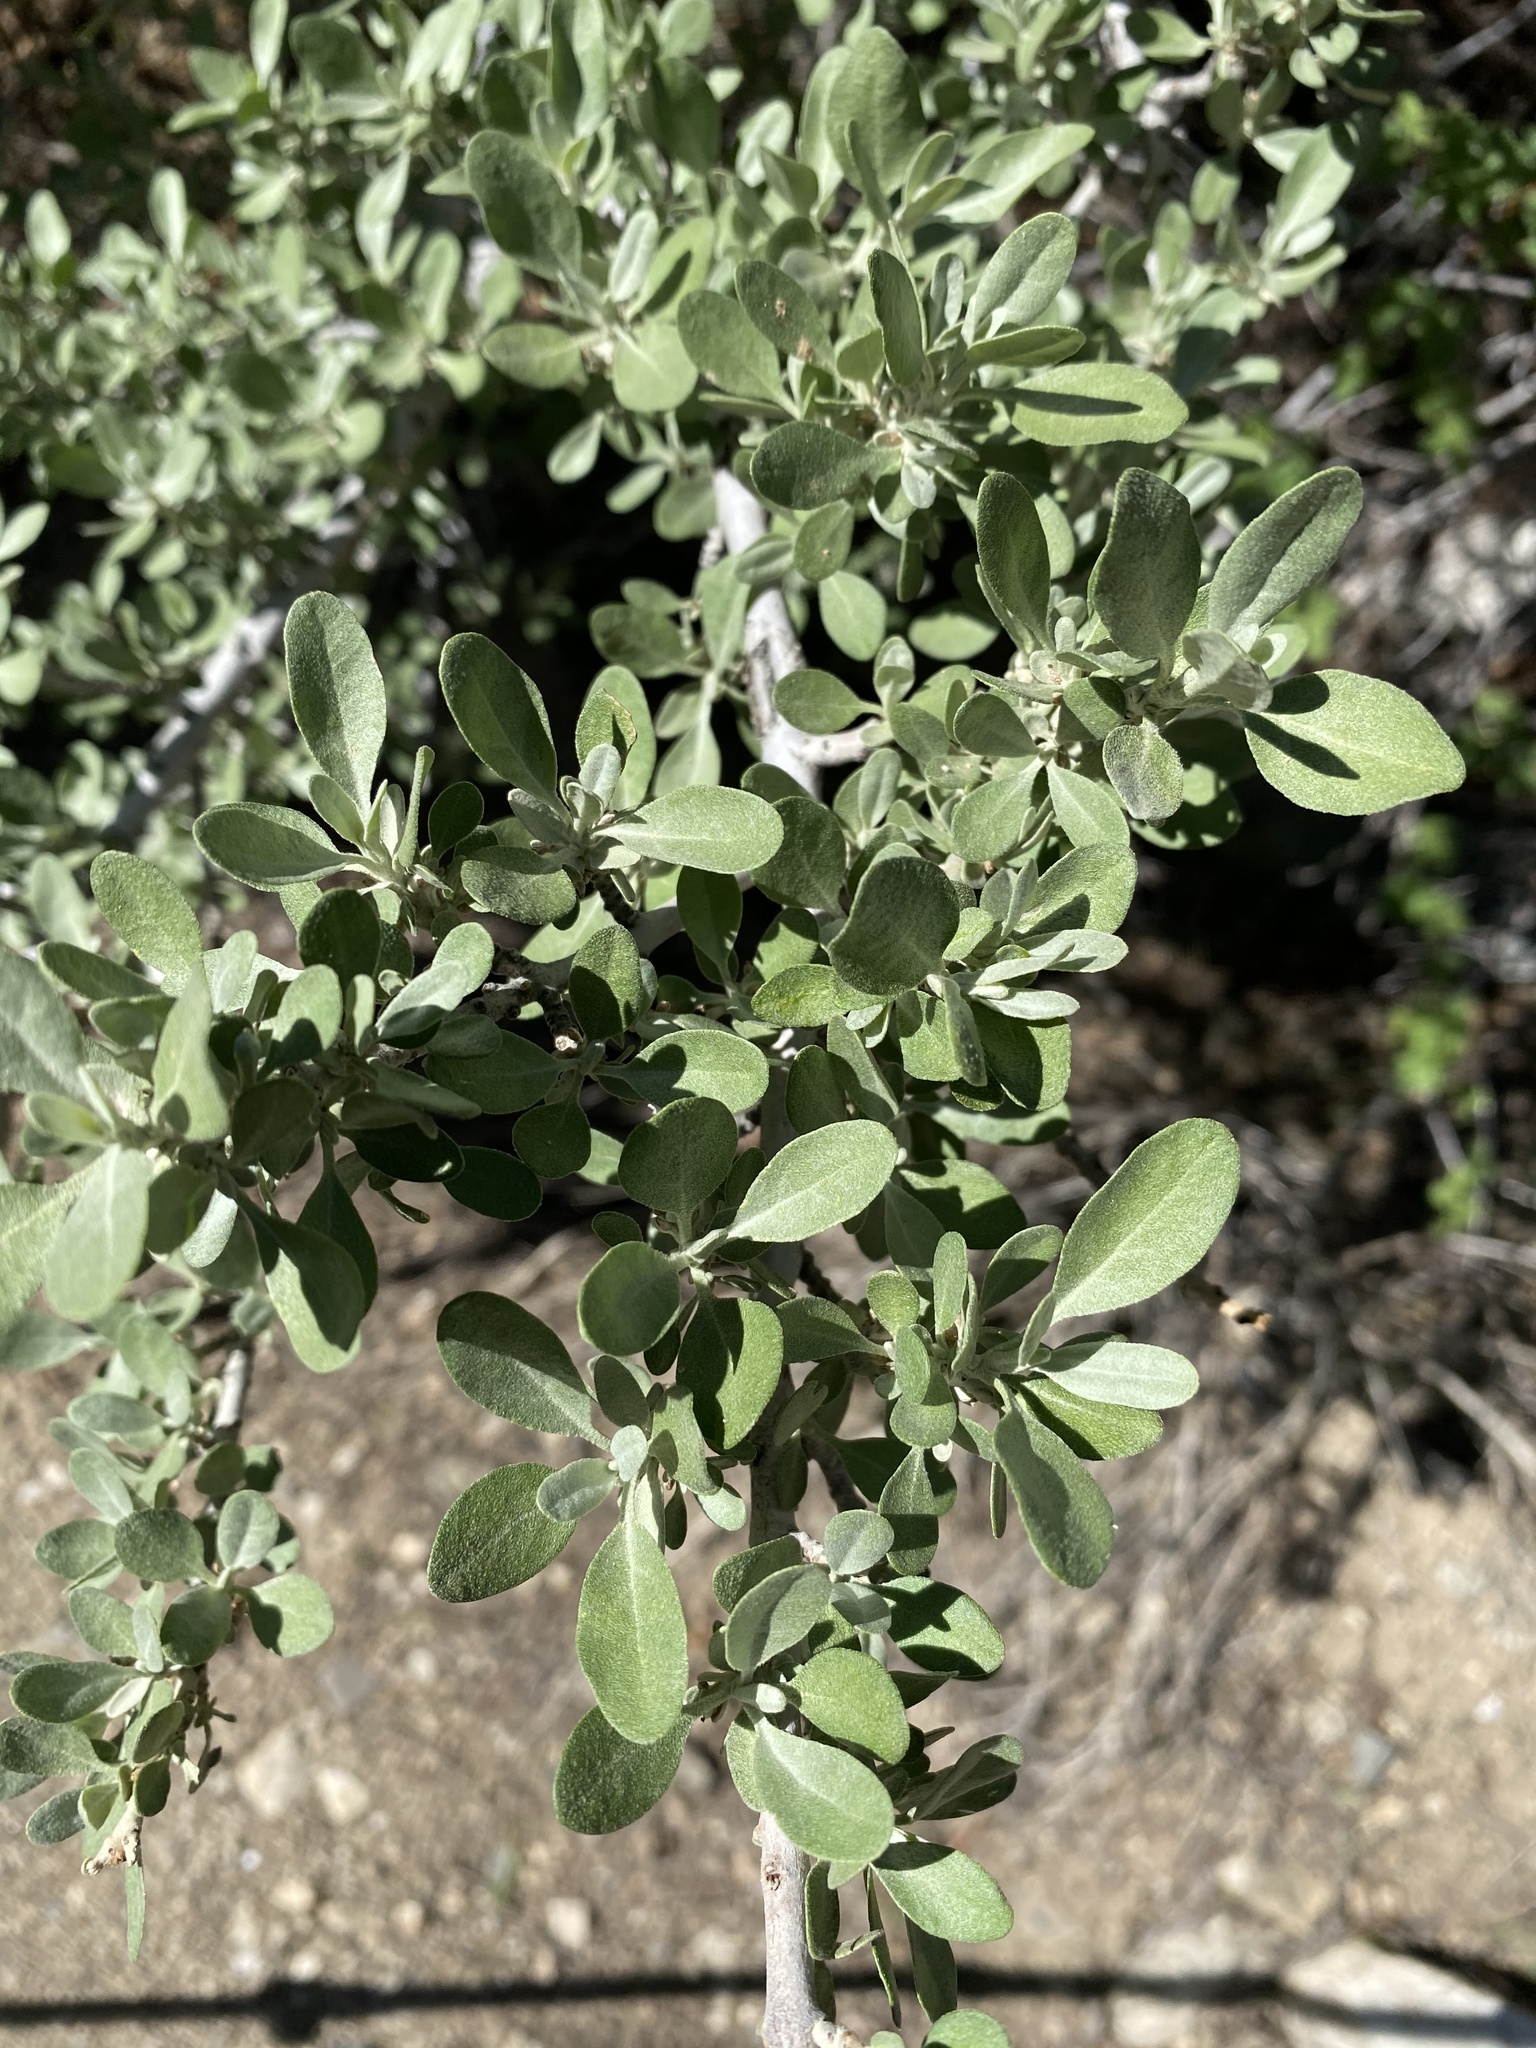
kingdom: Plantae
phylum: Tracheophyta
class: Magnoliopsida
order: Rosales
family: Elaeagnaceae
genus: Shepherdia
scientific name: Shepherdia argentea
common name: Silver buffaloberry
